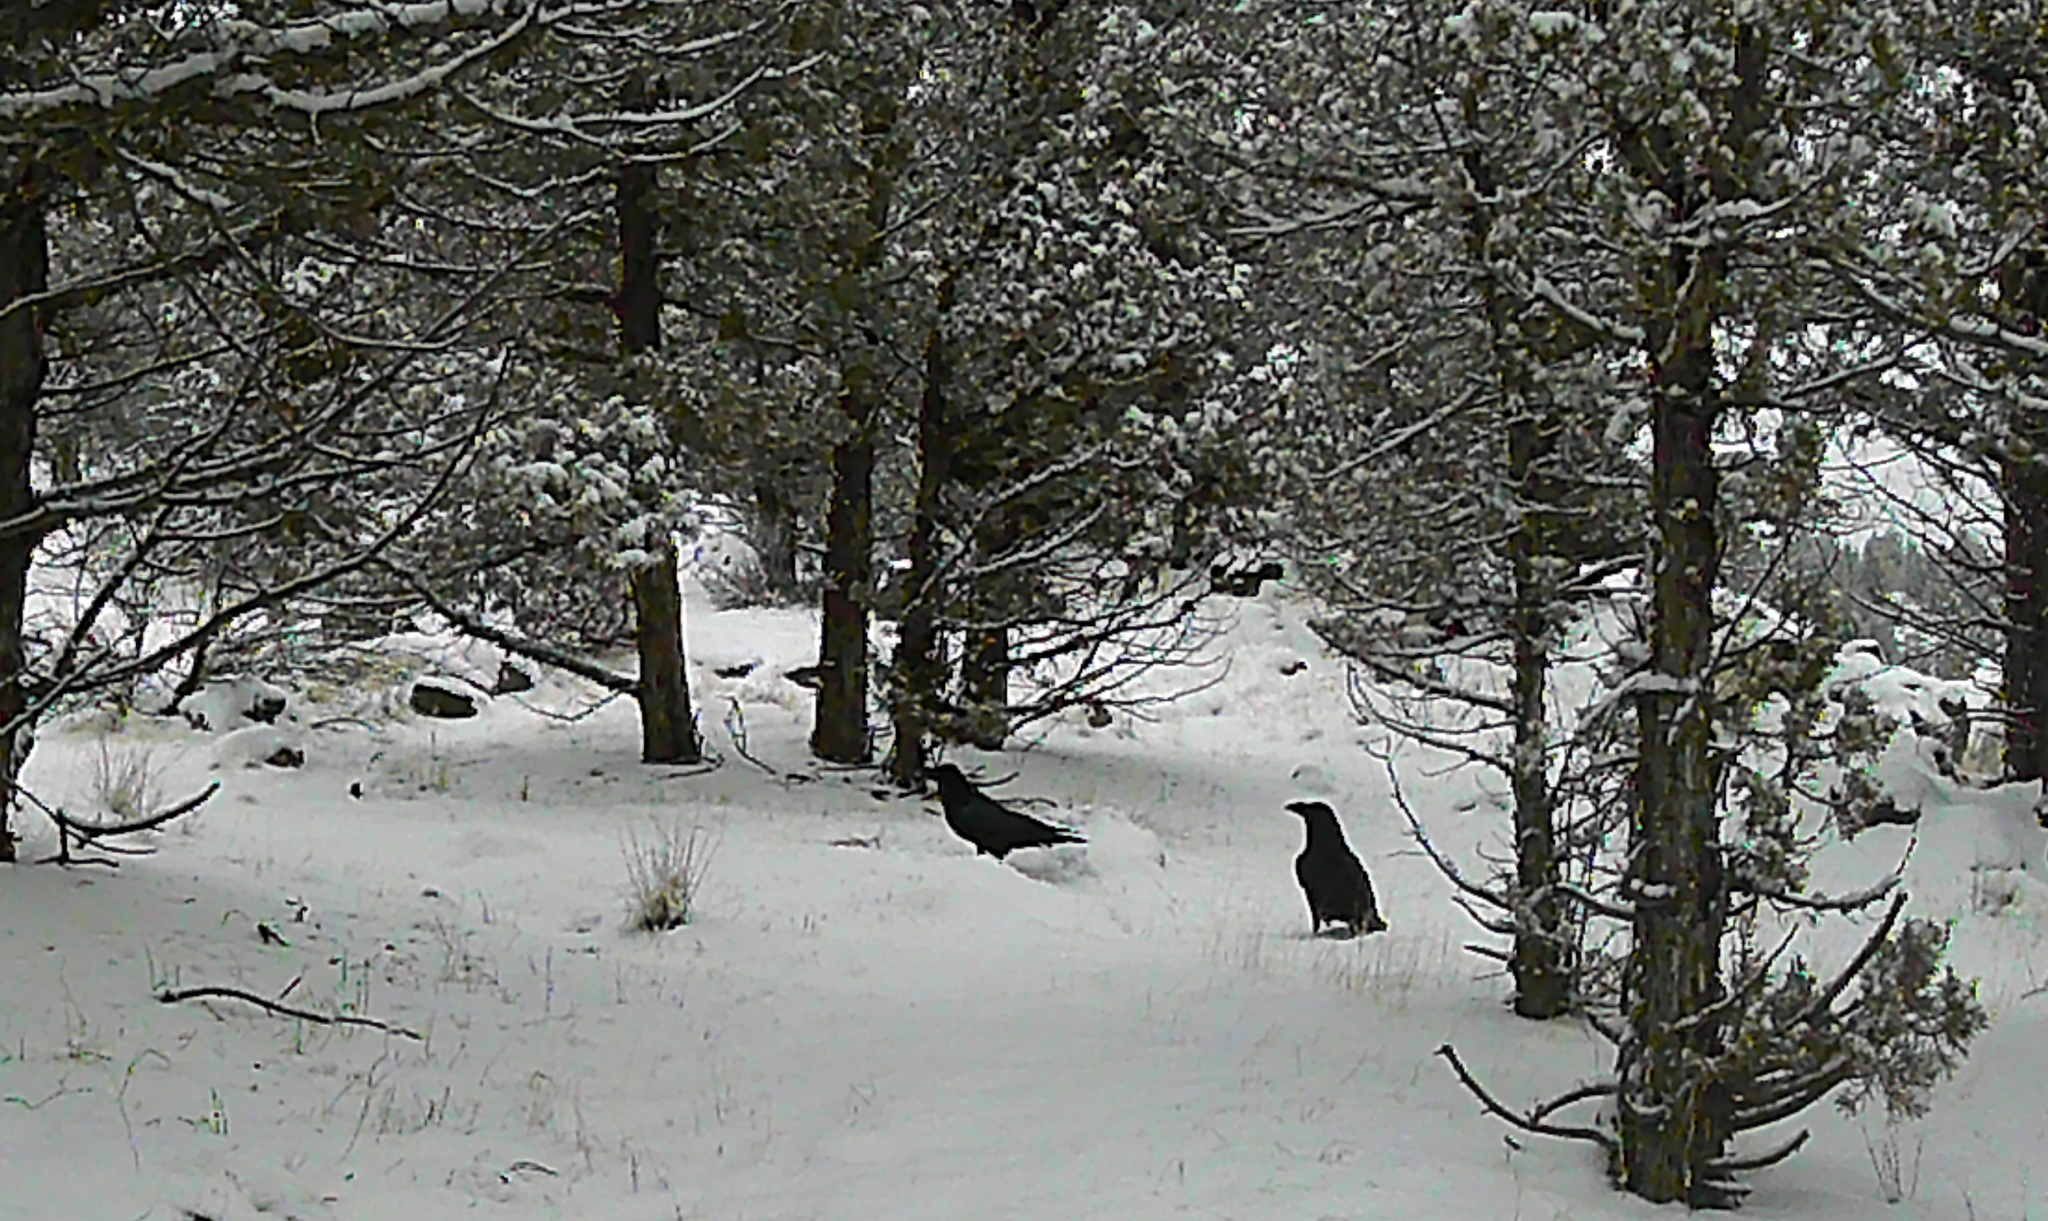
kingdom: Animalia
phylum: Chordata
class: Aves
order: Passeriformes
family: Corvidae
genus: Corvus
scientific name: Corvus corax
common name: Common raven
